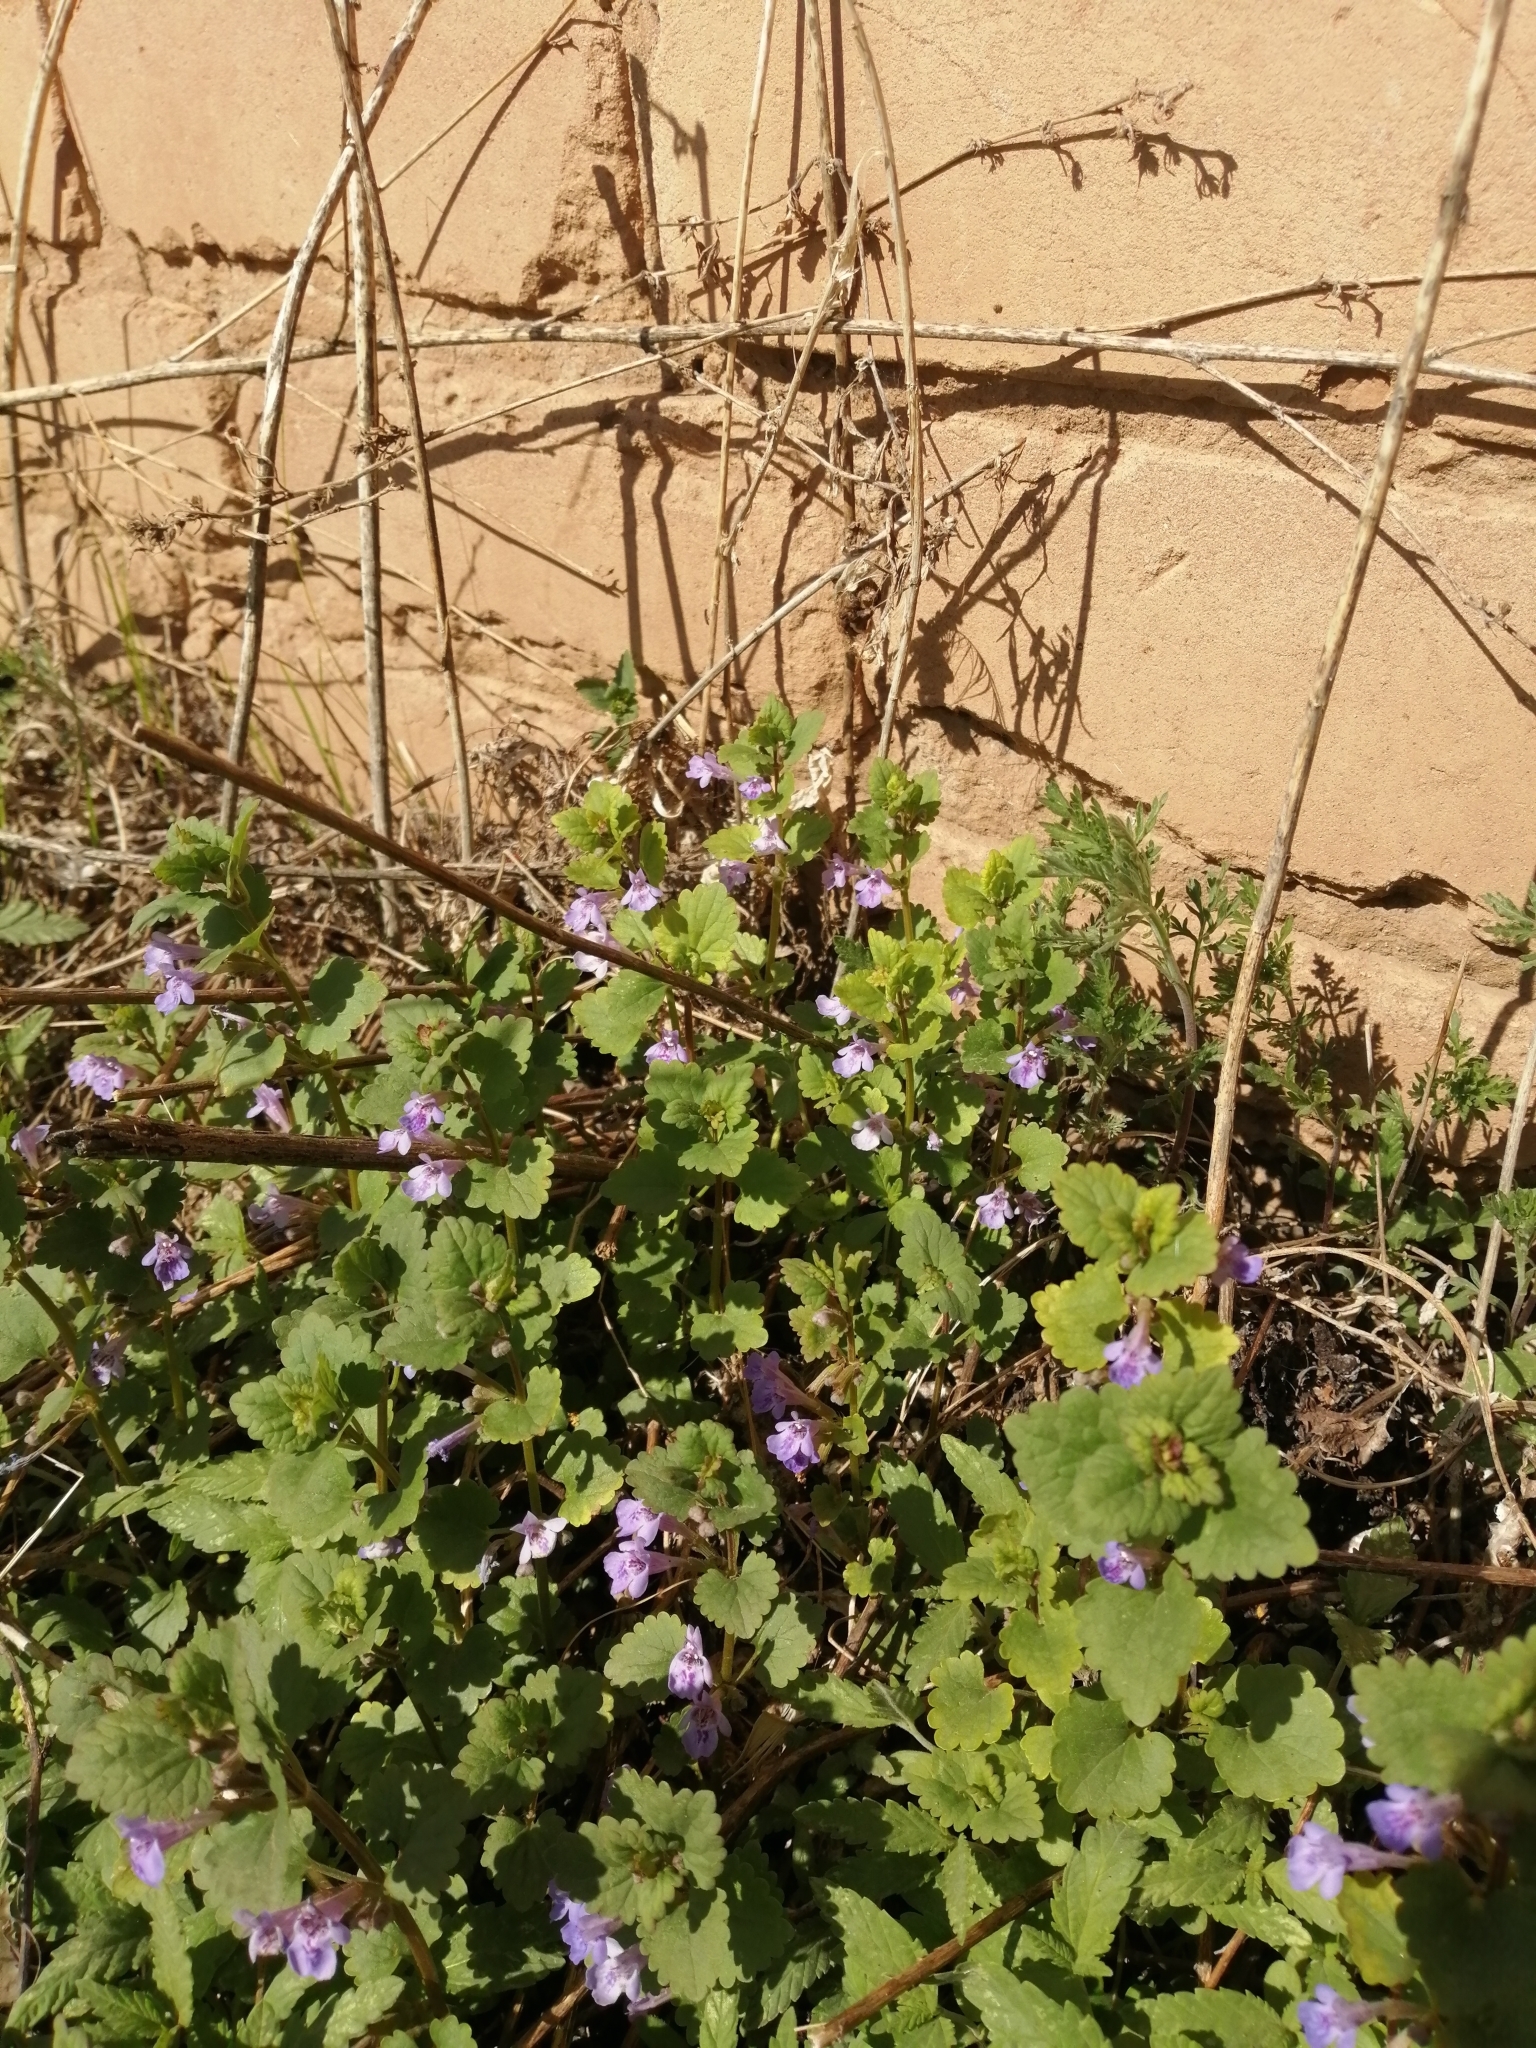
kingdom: Plantae
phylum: Tracheophyta
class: Magnoliopsida
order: Lamiales
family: Lamiaceae
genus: Glechoma
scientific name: Glechoma hederacea
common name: Ground ivy
